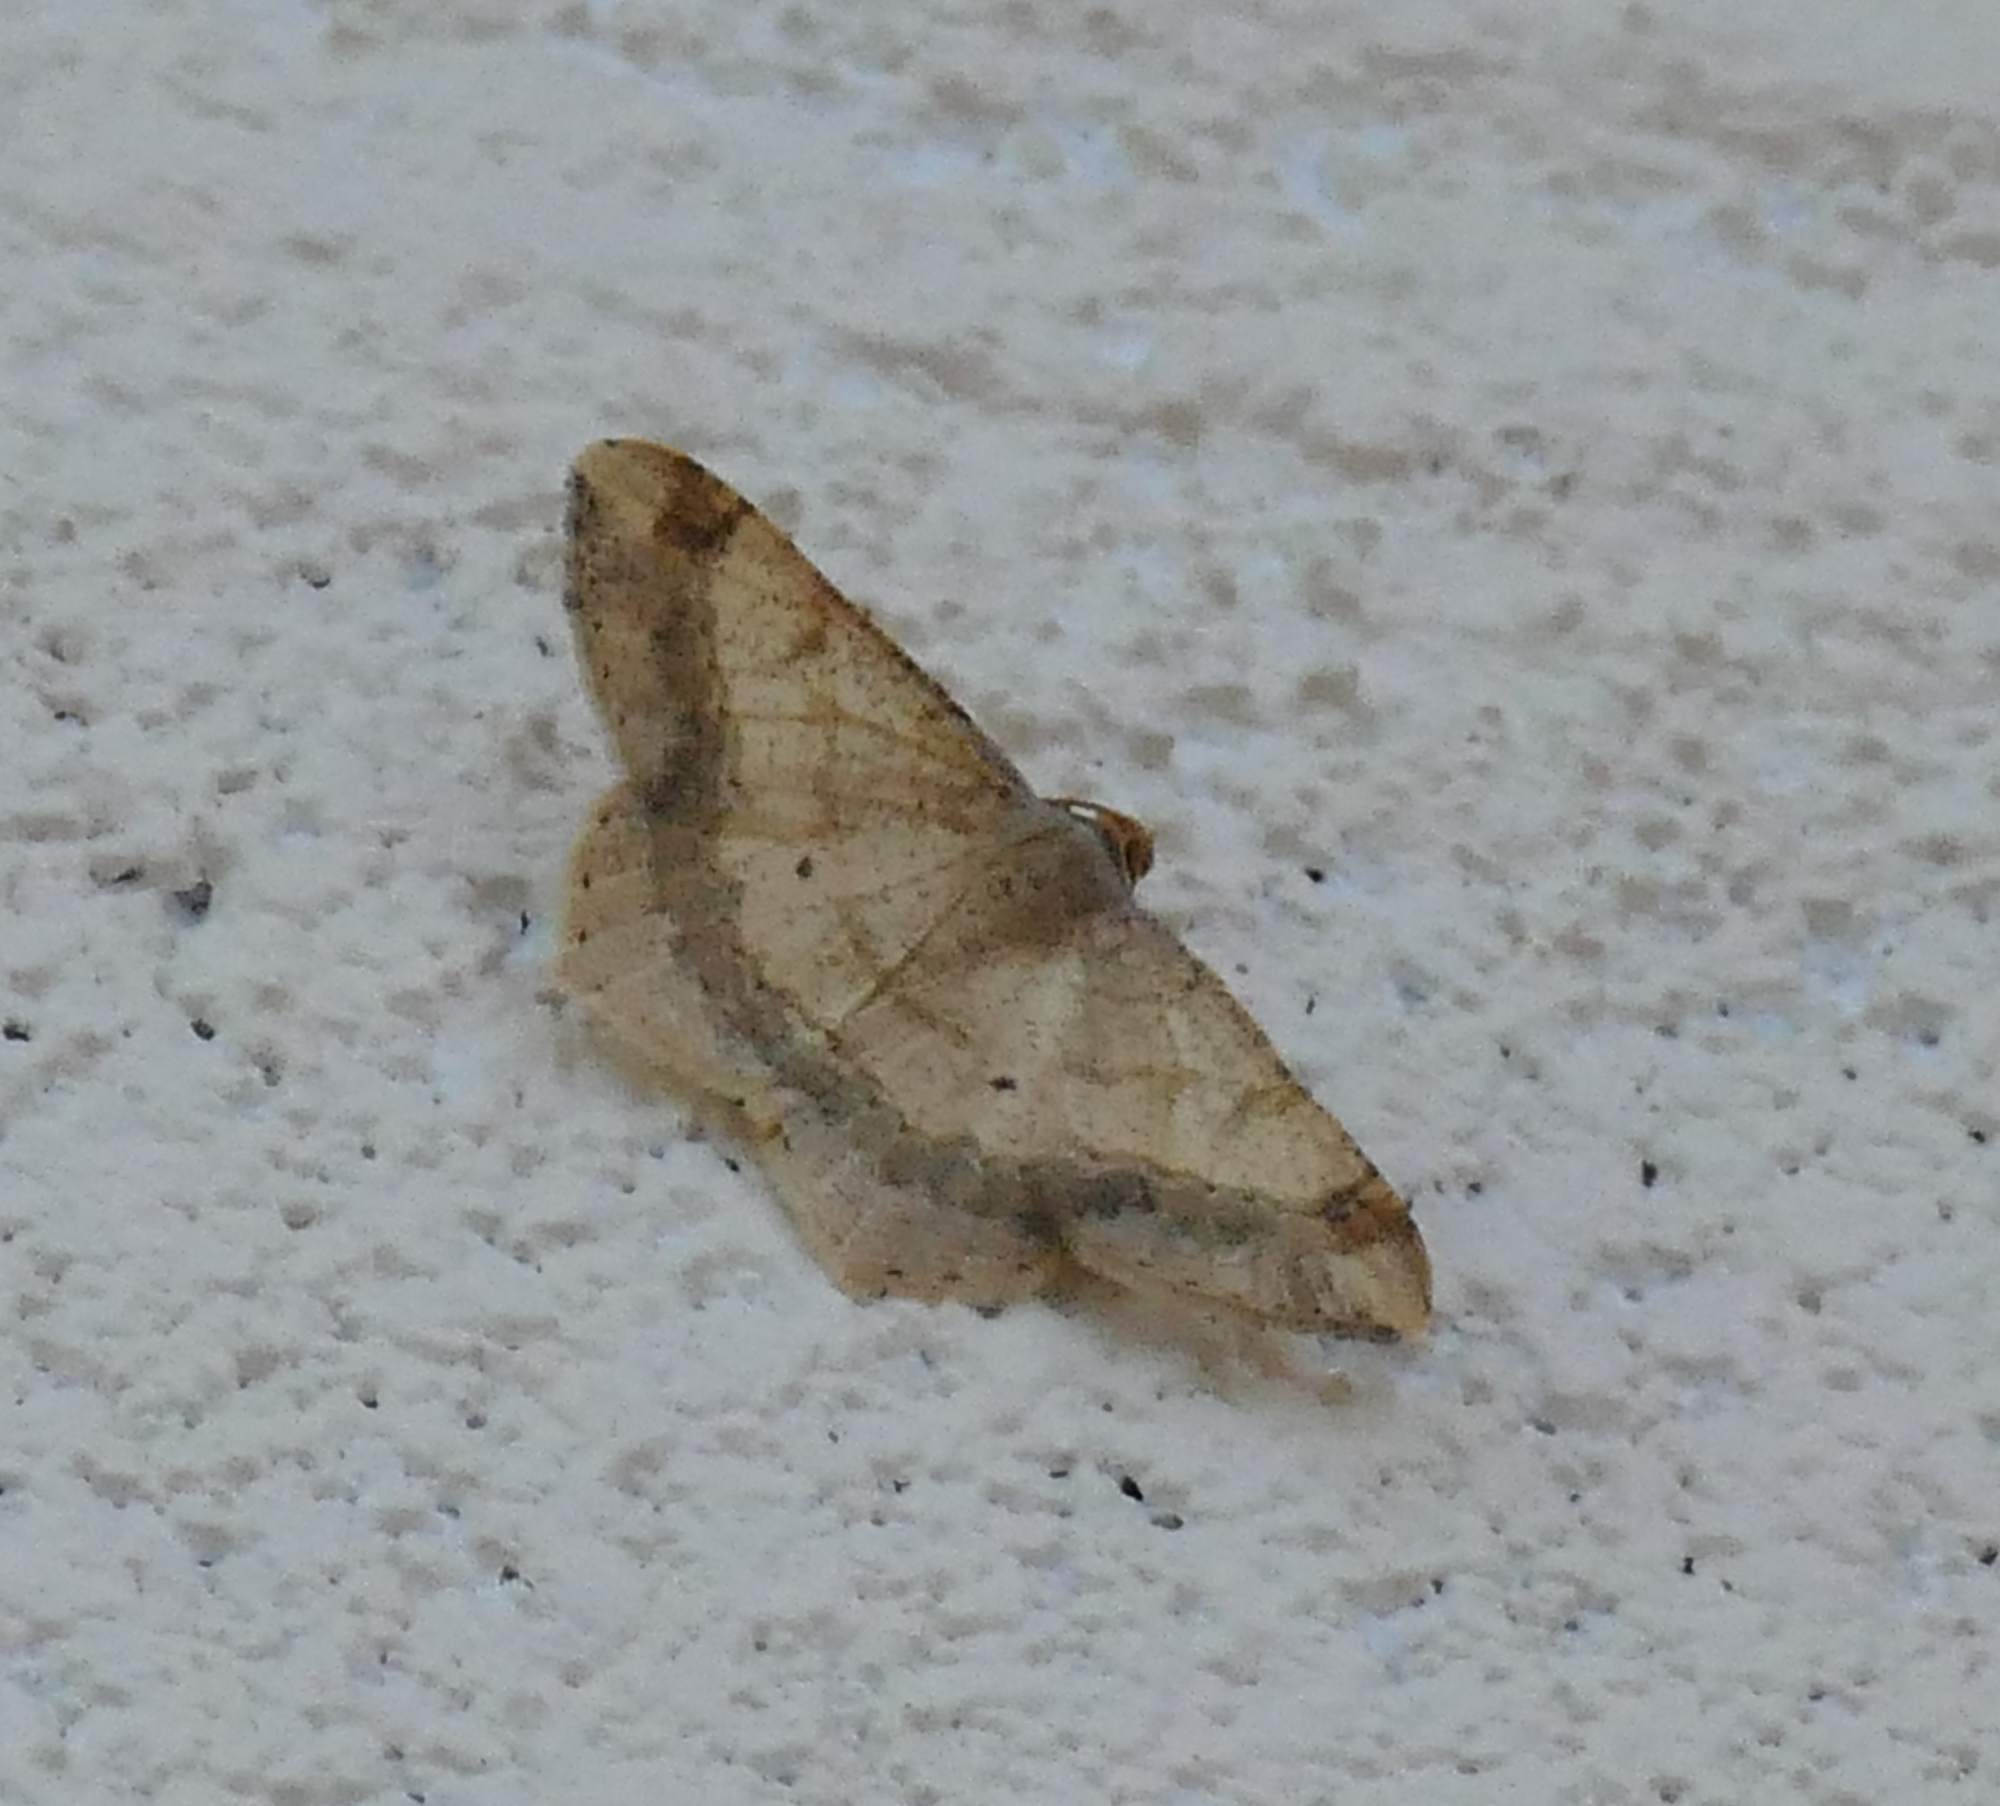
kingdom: Animalia
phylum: Arthropoda
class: Insecta
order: Lepidoptera
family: Geometridae
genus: Macaria
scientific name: Macaria abydata
